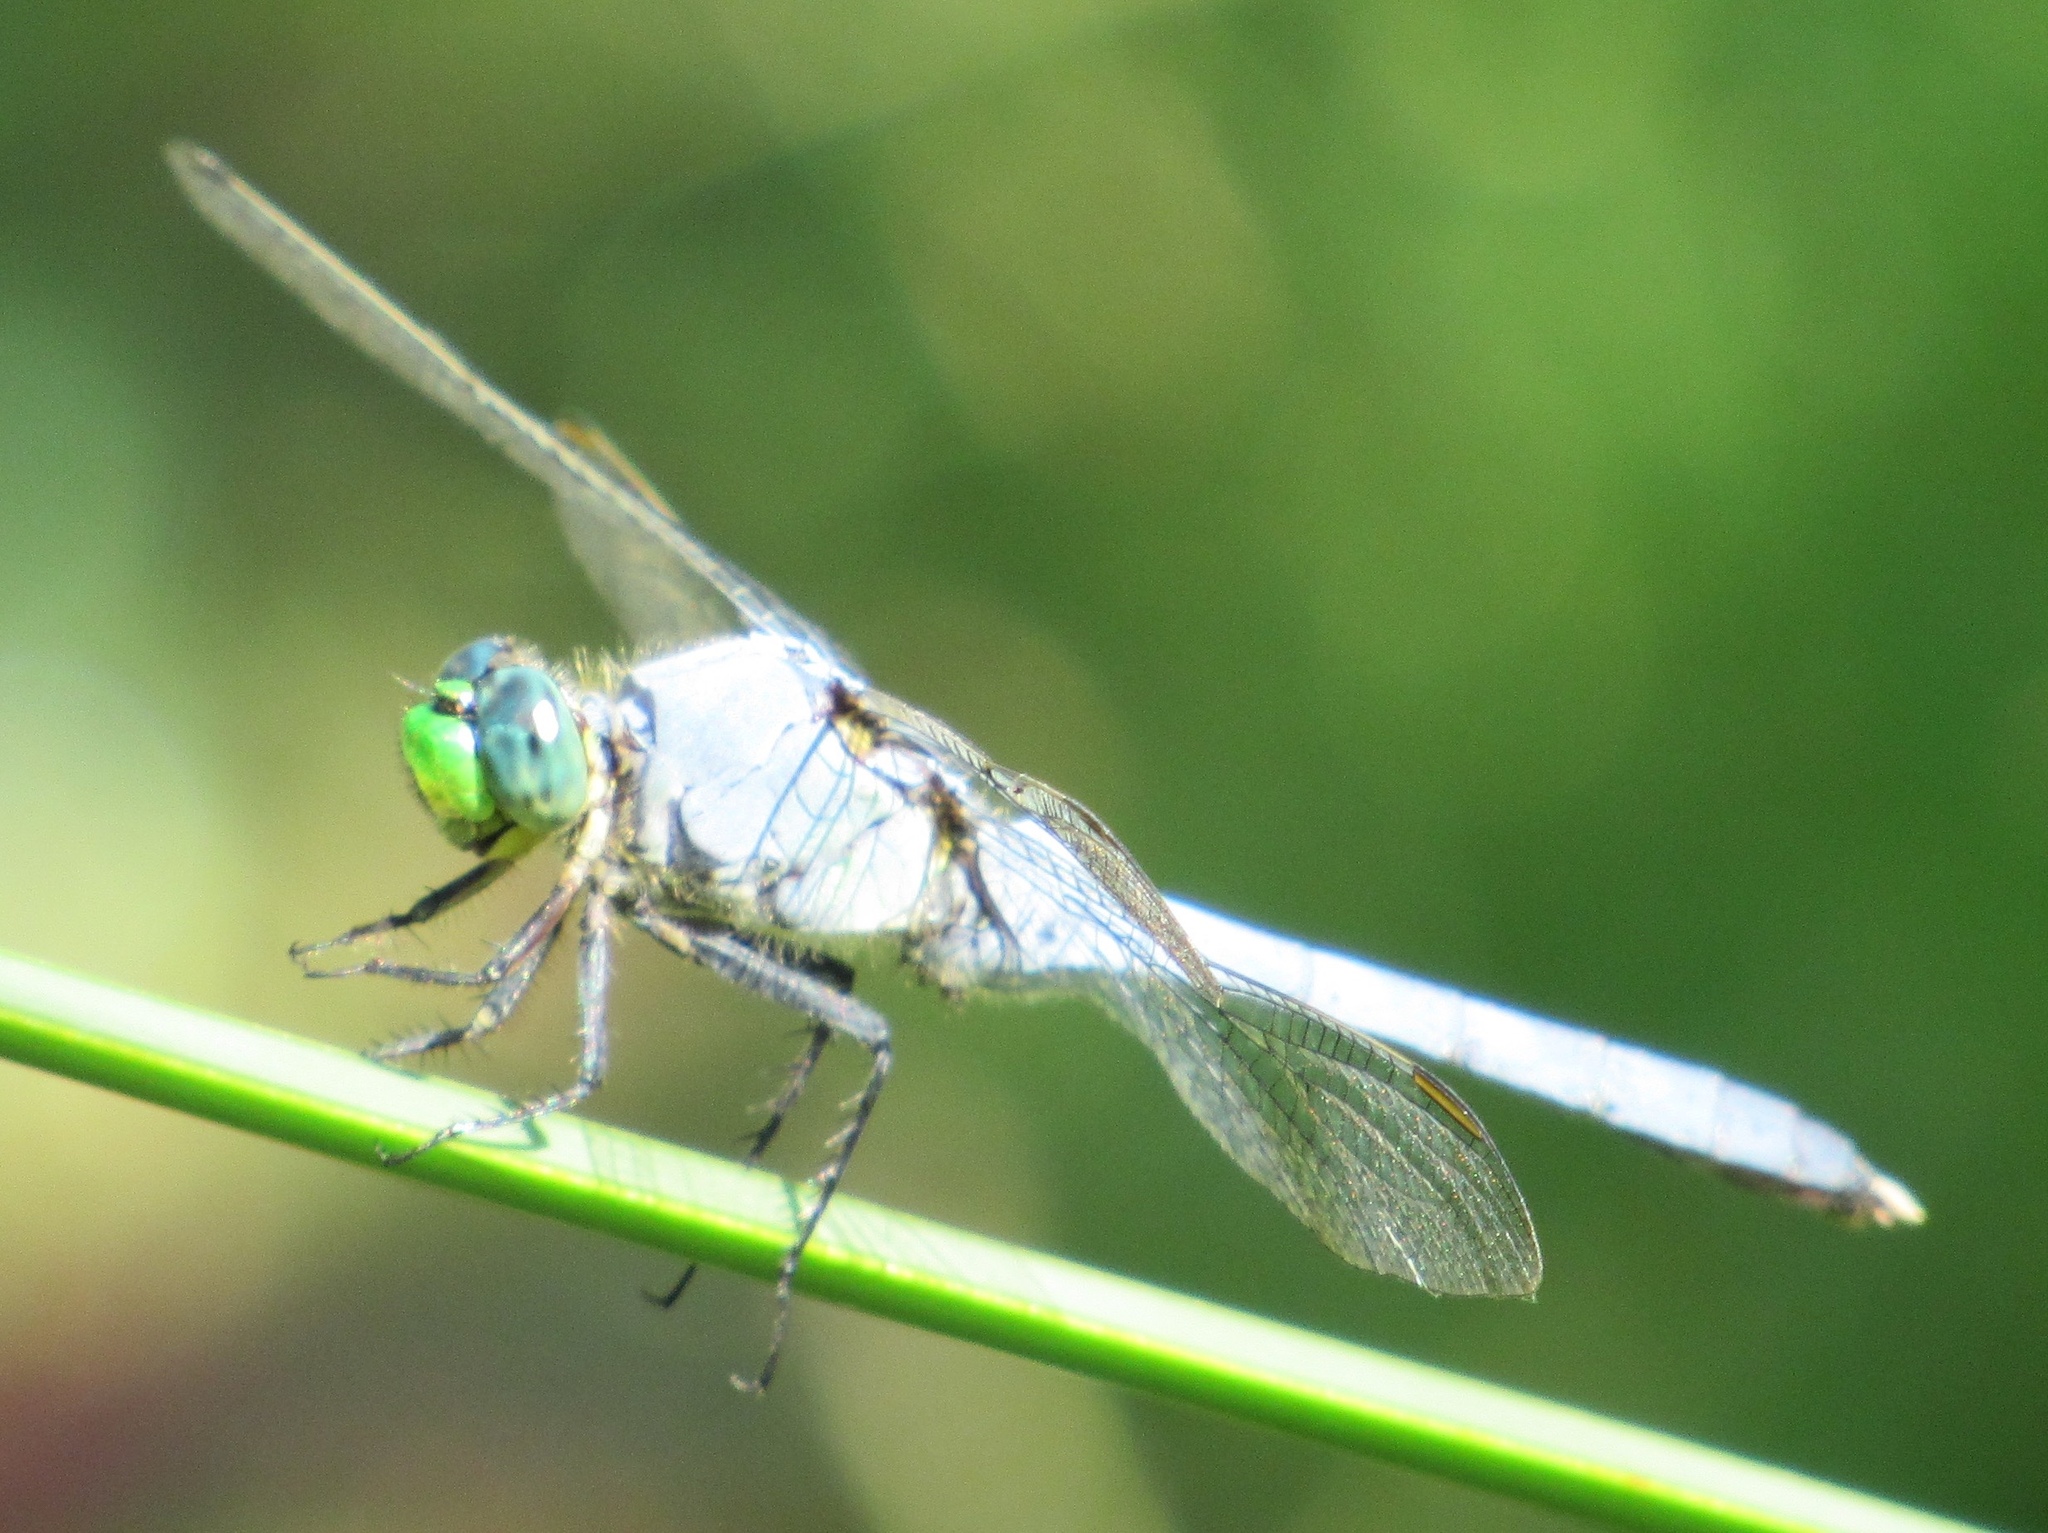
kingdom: Animalia
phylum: Arthropoda
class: Insecta
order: Odonata
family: Libellulidae
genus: Erythemis
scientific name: Erythemis simplicicollis
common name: Eastern pondhawk
